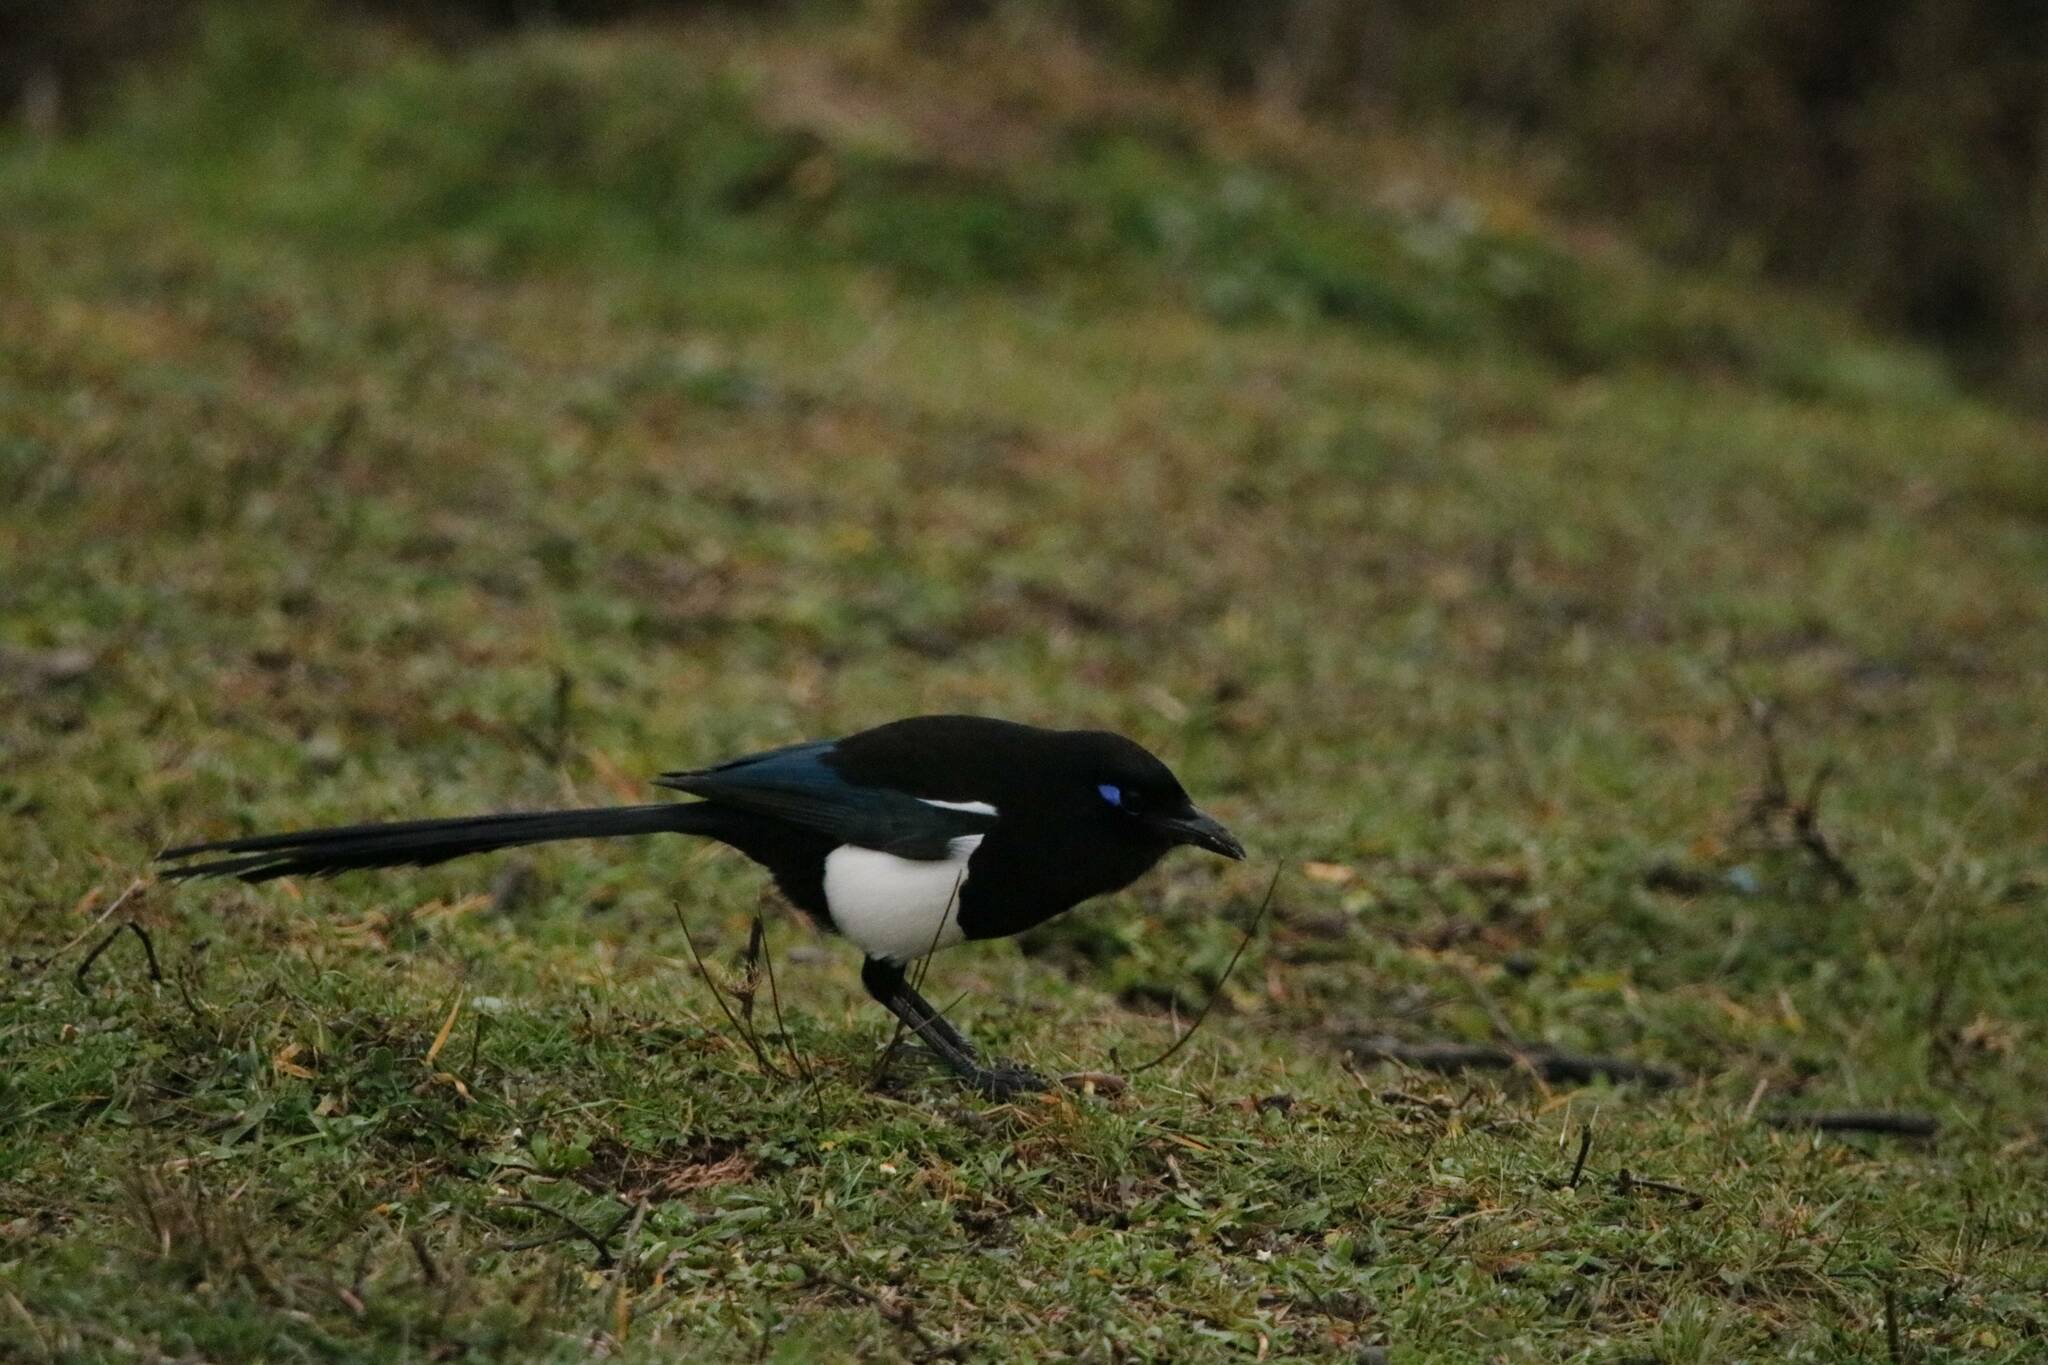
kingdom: Animalia
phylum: Chordata
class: Aves
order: Passeriformes
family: Corvidae
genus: Pica
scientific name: Pica mauritanica
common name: Maghreb magpie
